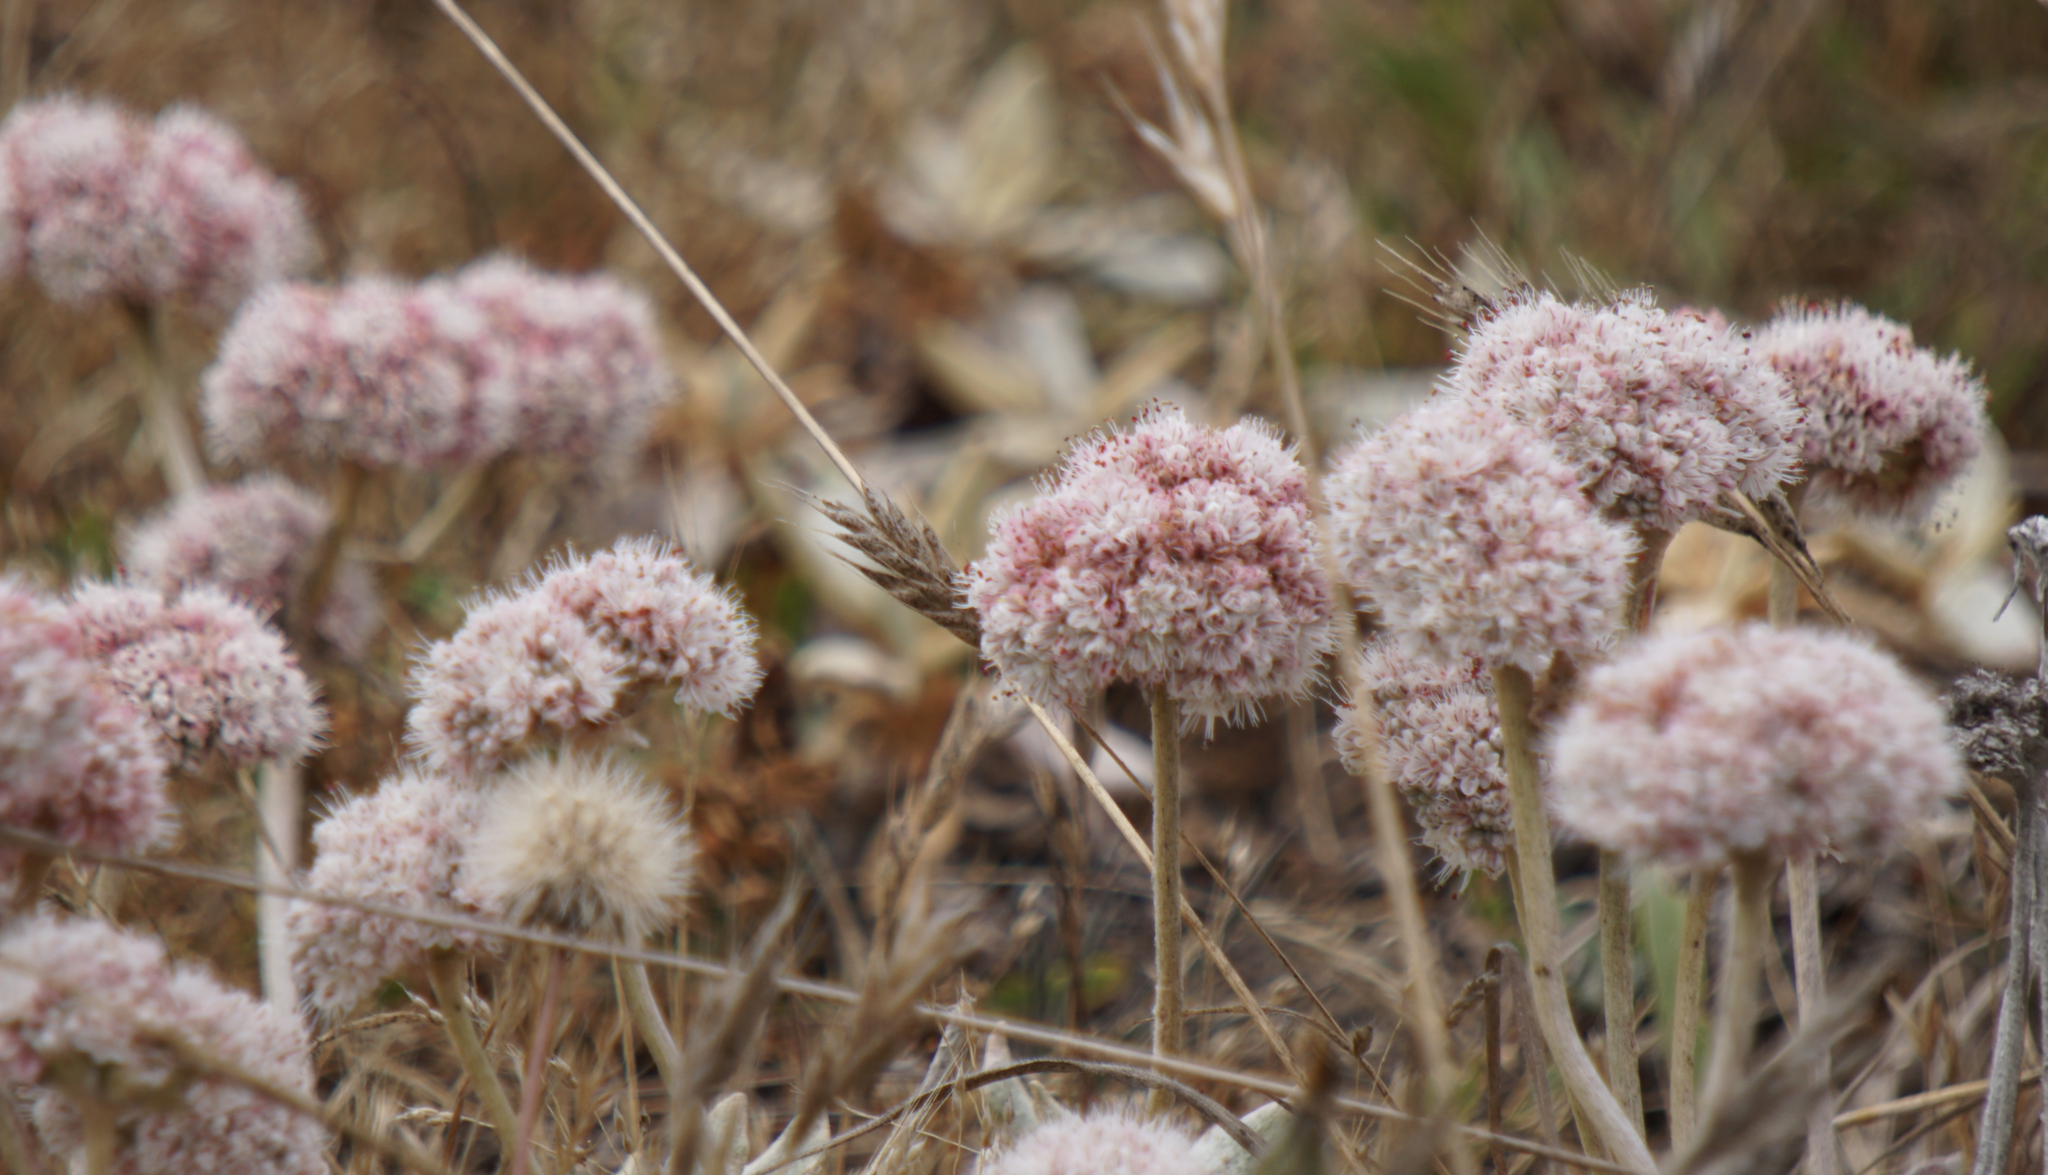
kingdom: Plantae
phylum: Tracheophyta
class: Magnoliopsida
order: Caryophyllales
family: Polygonaceae
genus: Eriogonum
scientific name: Eriogonum latifolium
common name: Seaside wild buckwheat
